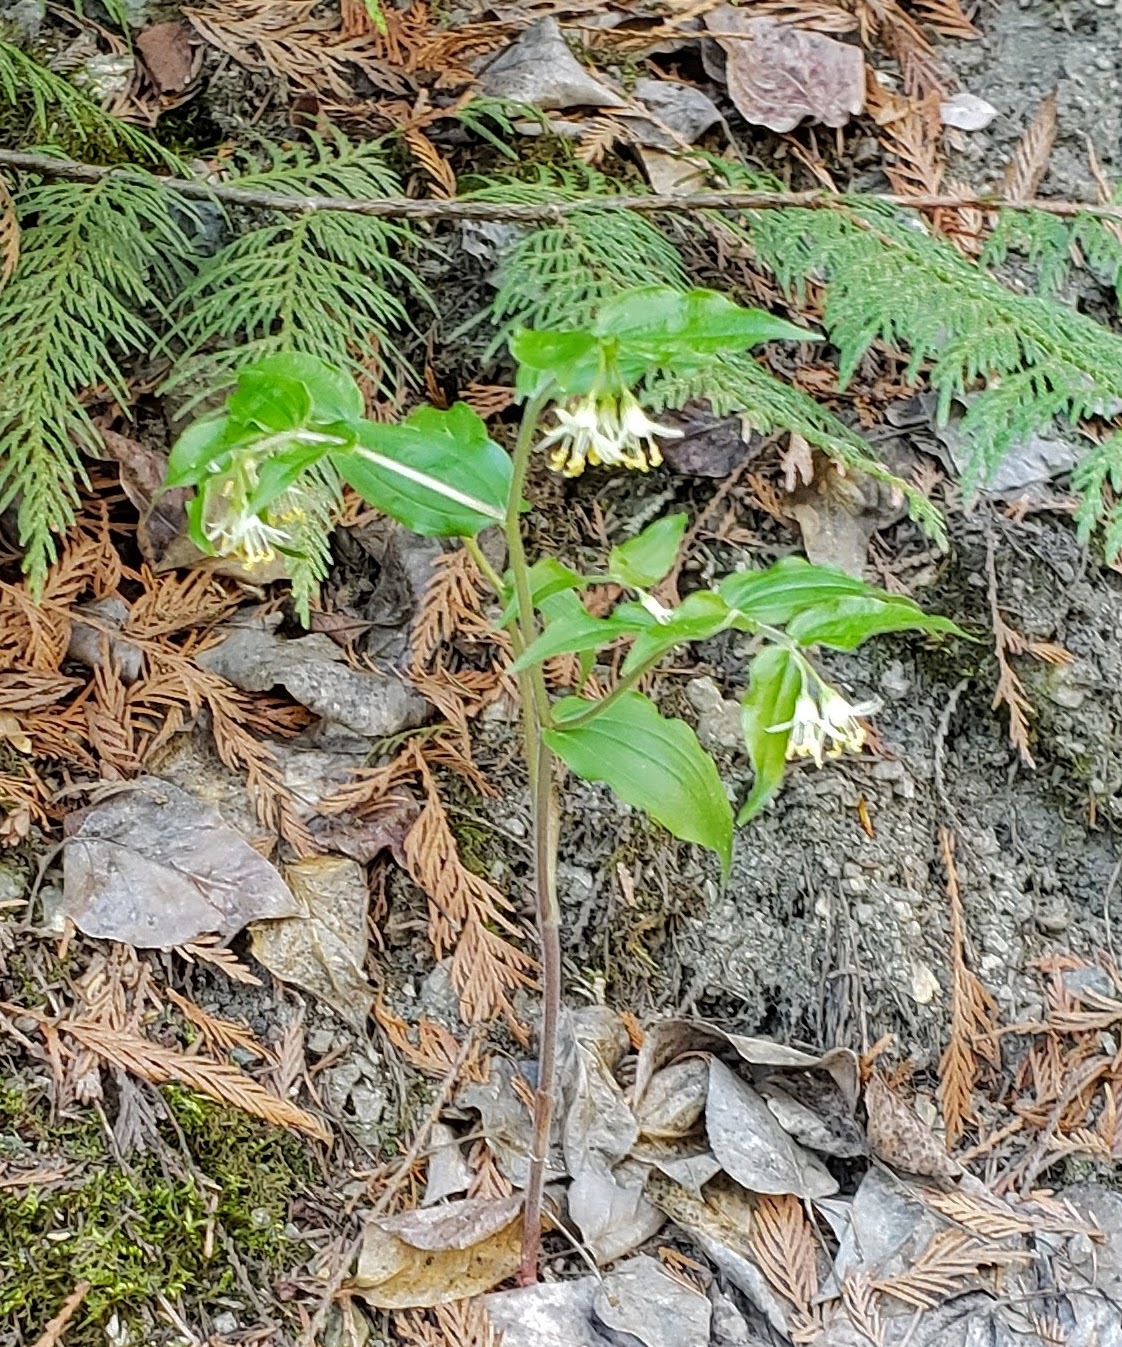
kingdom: Plantae
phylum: Tracheophyta
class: Liliopsida
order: Liliales
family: Liliaceae
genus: Prosartes
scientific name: Prosartes trachycarpa
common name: Rough-fruit fairy-bells
